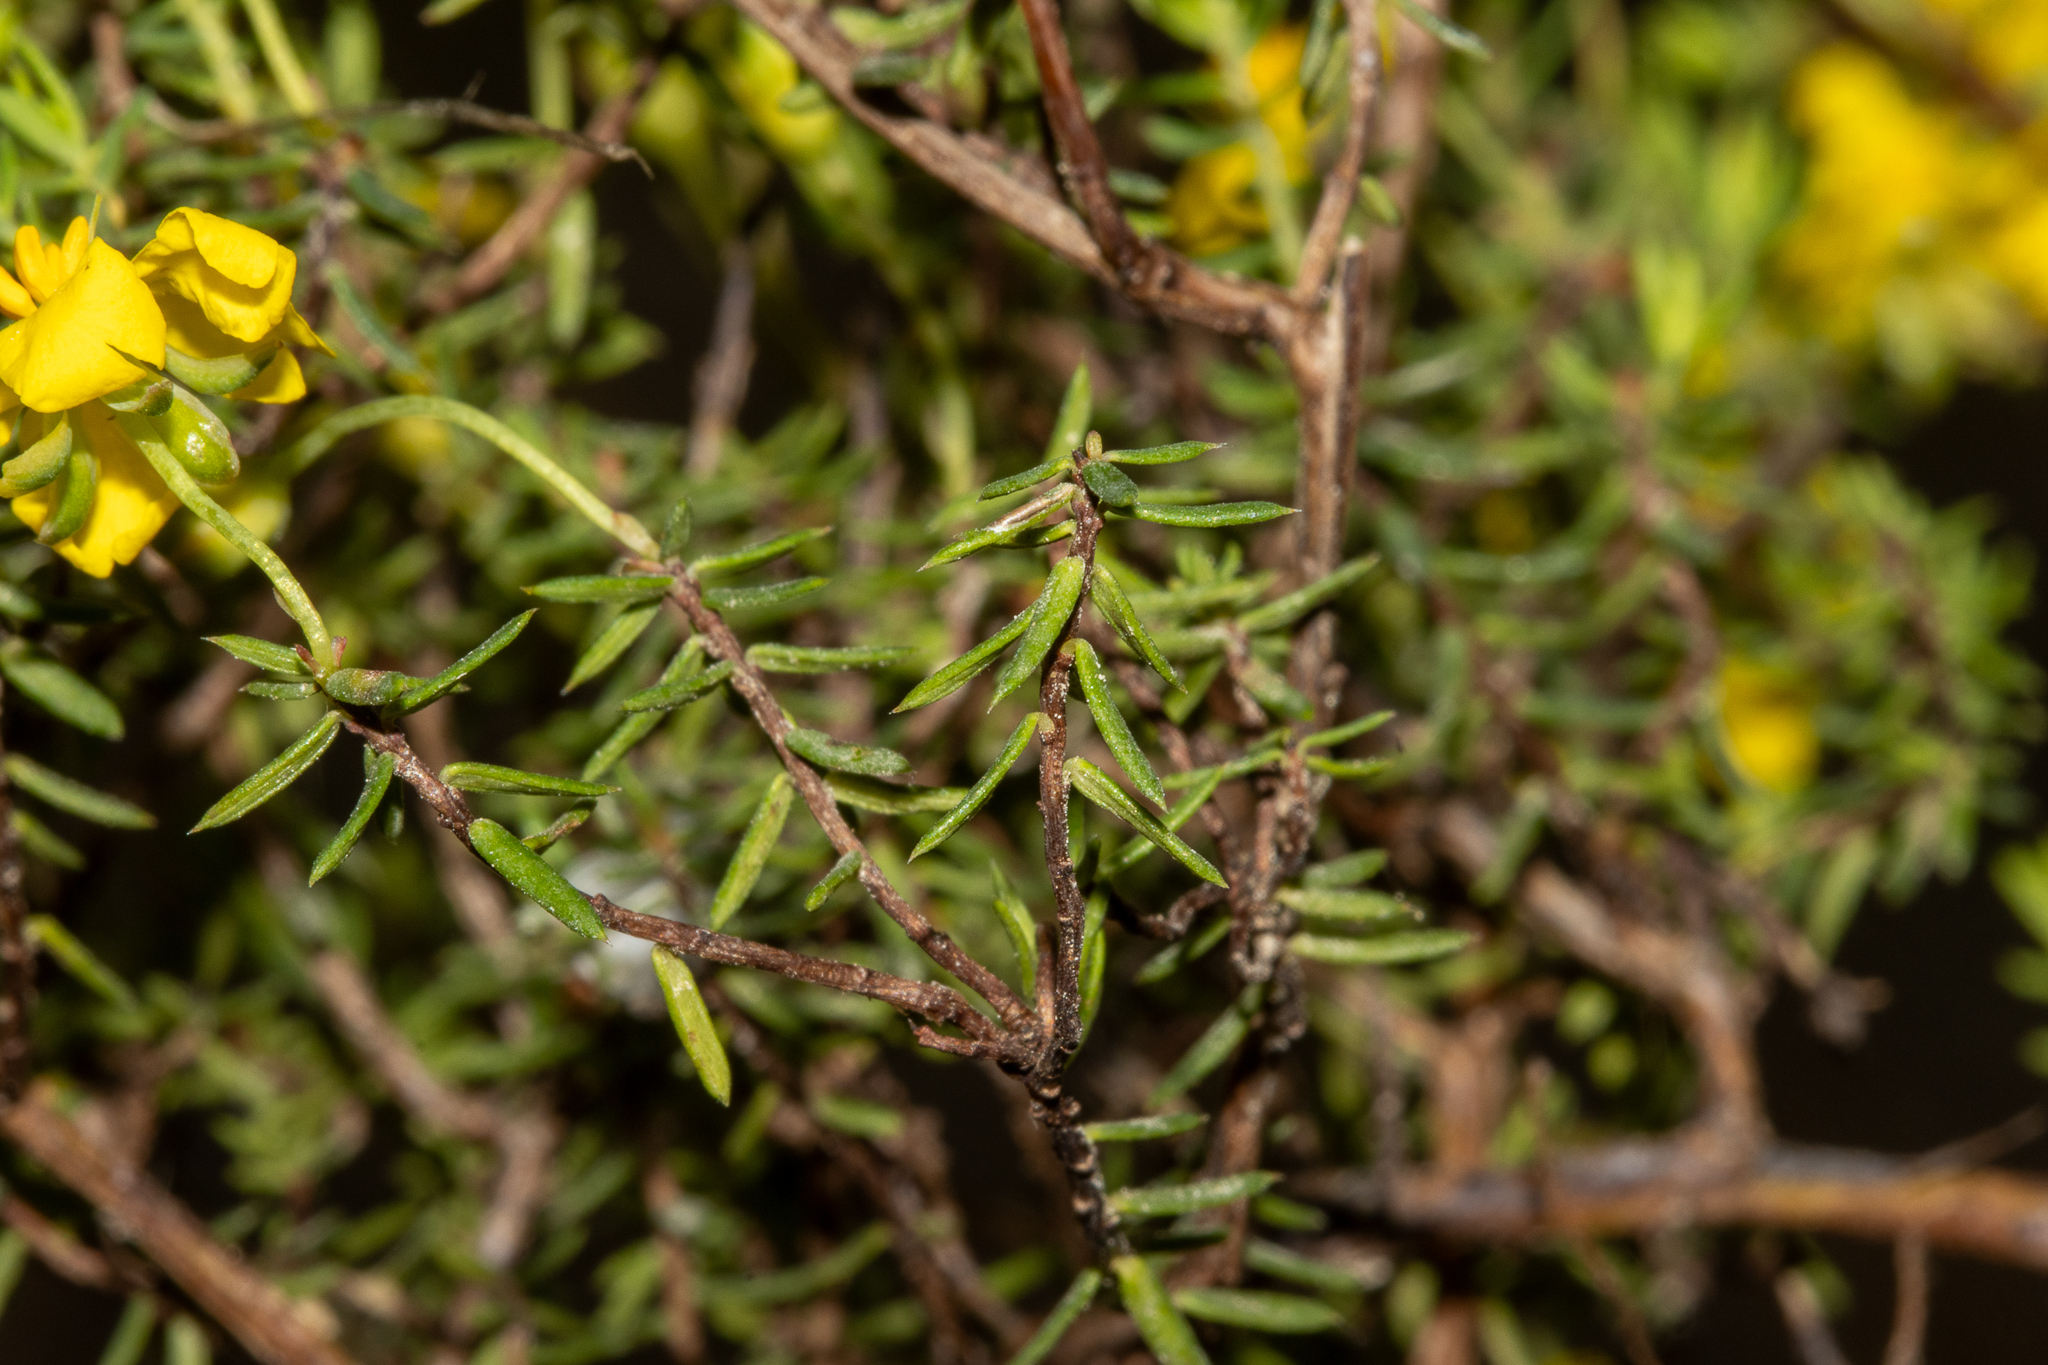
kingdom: Plantae
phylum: Tracheophyta
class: Magnoliopsida
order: Dilleniales
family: Dilleniaceae
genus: Hibbertia
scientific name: Hibbertia obtusibracteata
